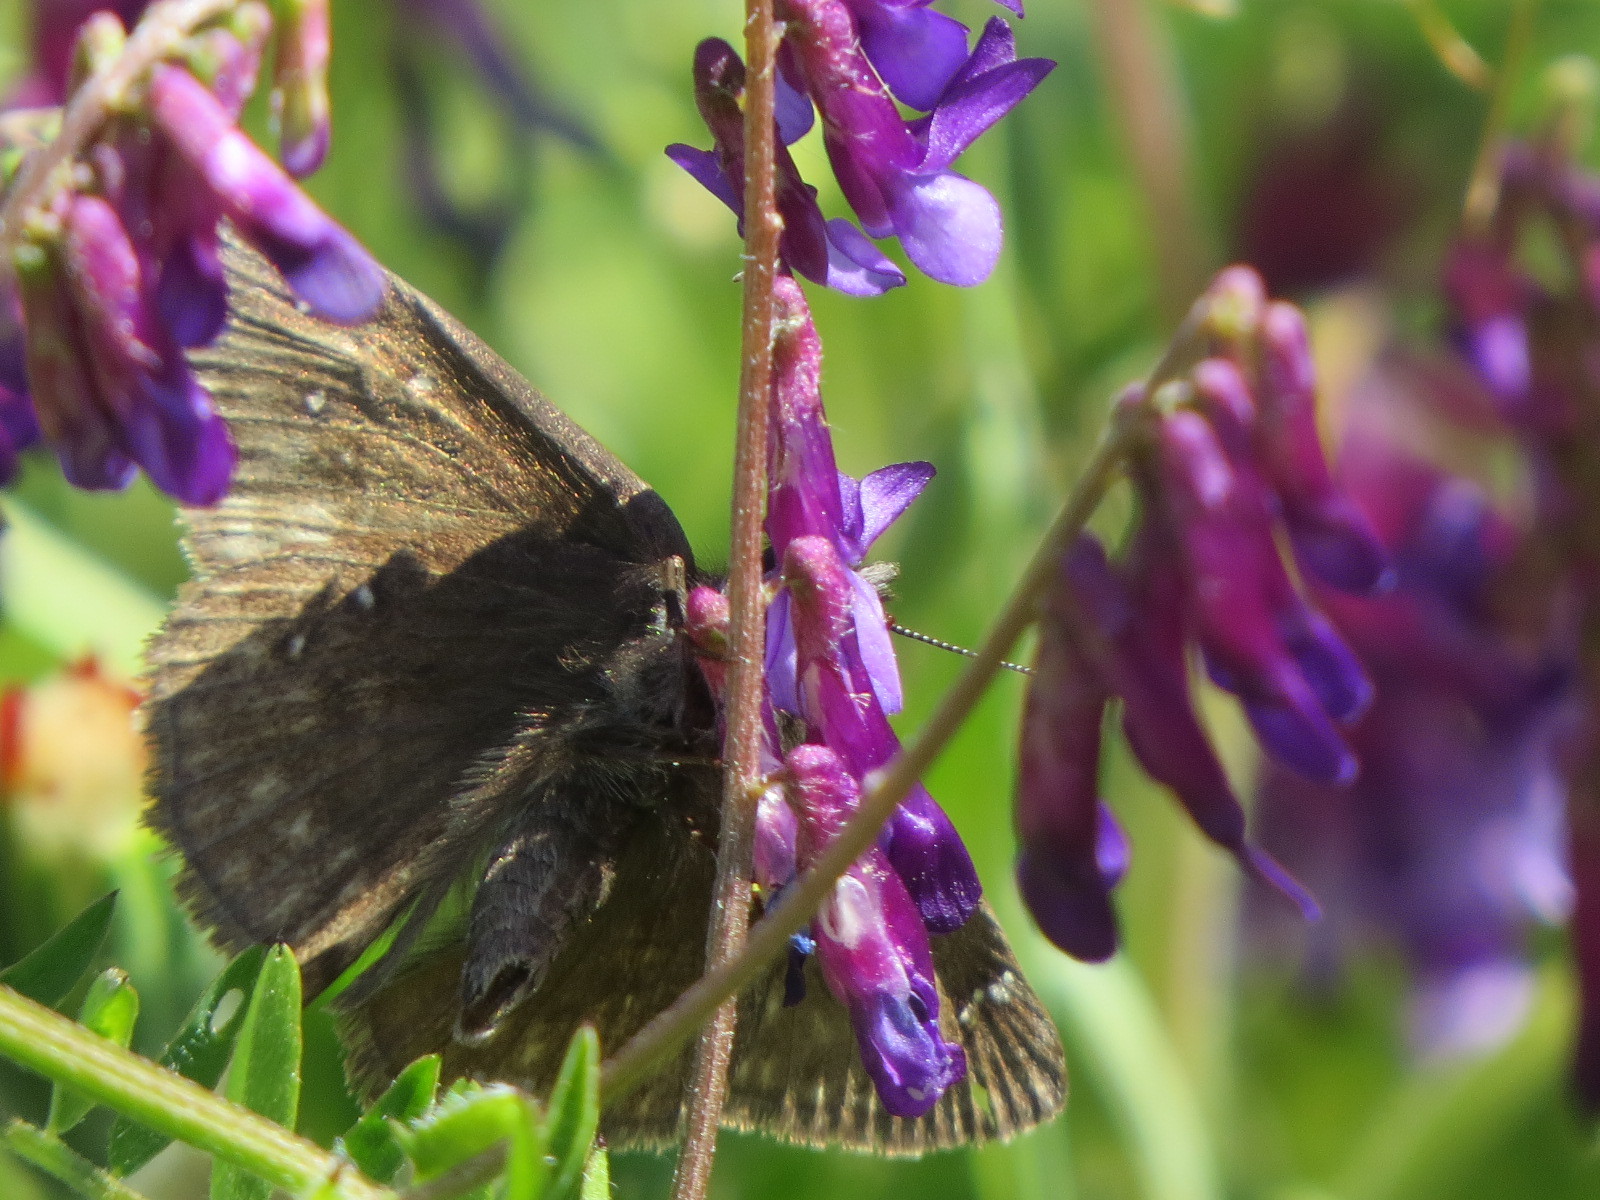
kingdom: Animalia
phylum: Arthropoda
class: Insecta
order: Lepidoptera
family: Hesperiidae
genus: Erynnis
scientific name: Erynnis propertius
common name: Propertius duskywing
